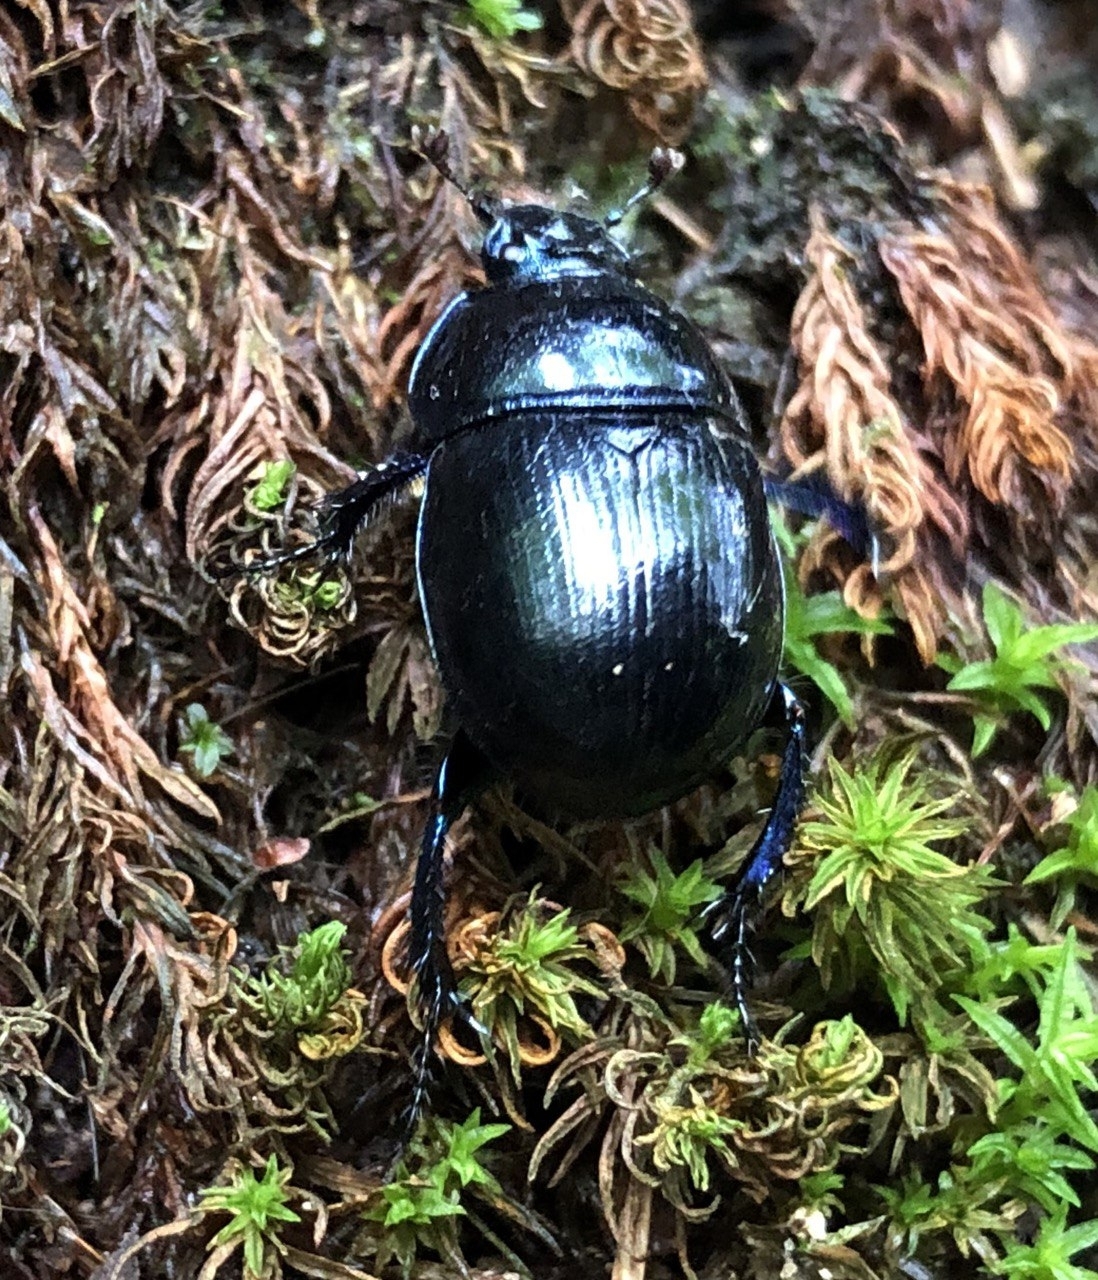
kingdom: Animalia
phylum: Arthropoda
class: Insecta
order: Coleoptera
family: Geotrupidae
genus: Anoplotrupes
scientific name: Anoplotrupes stercorosus
